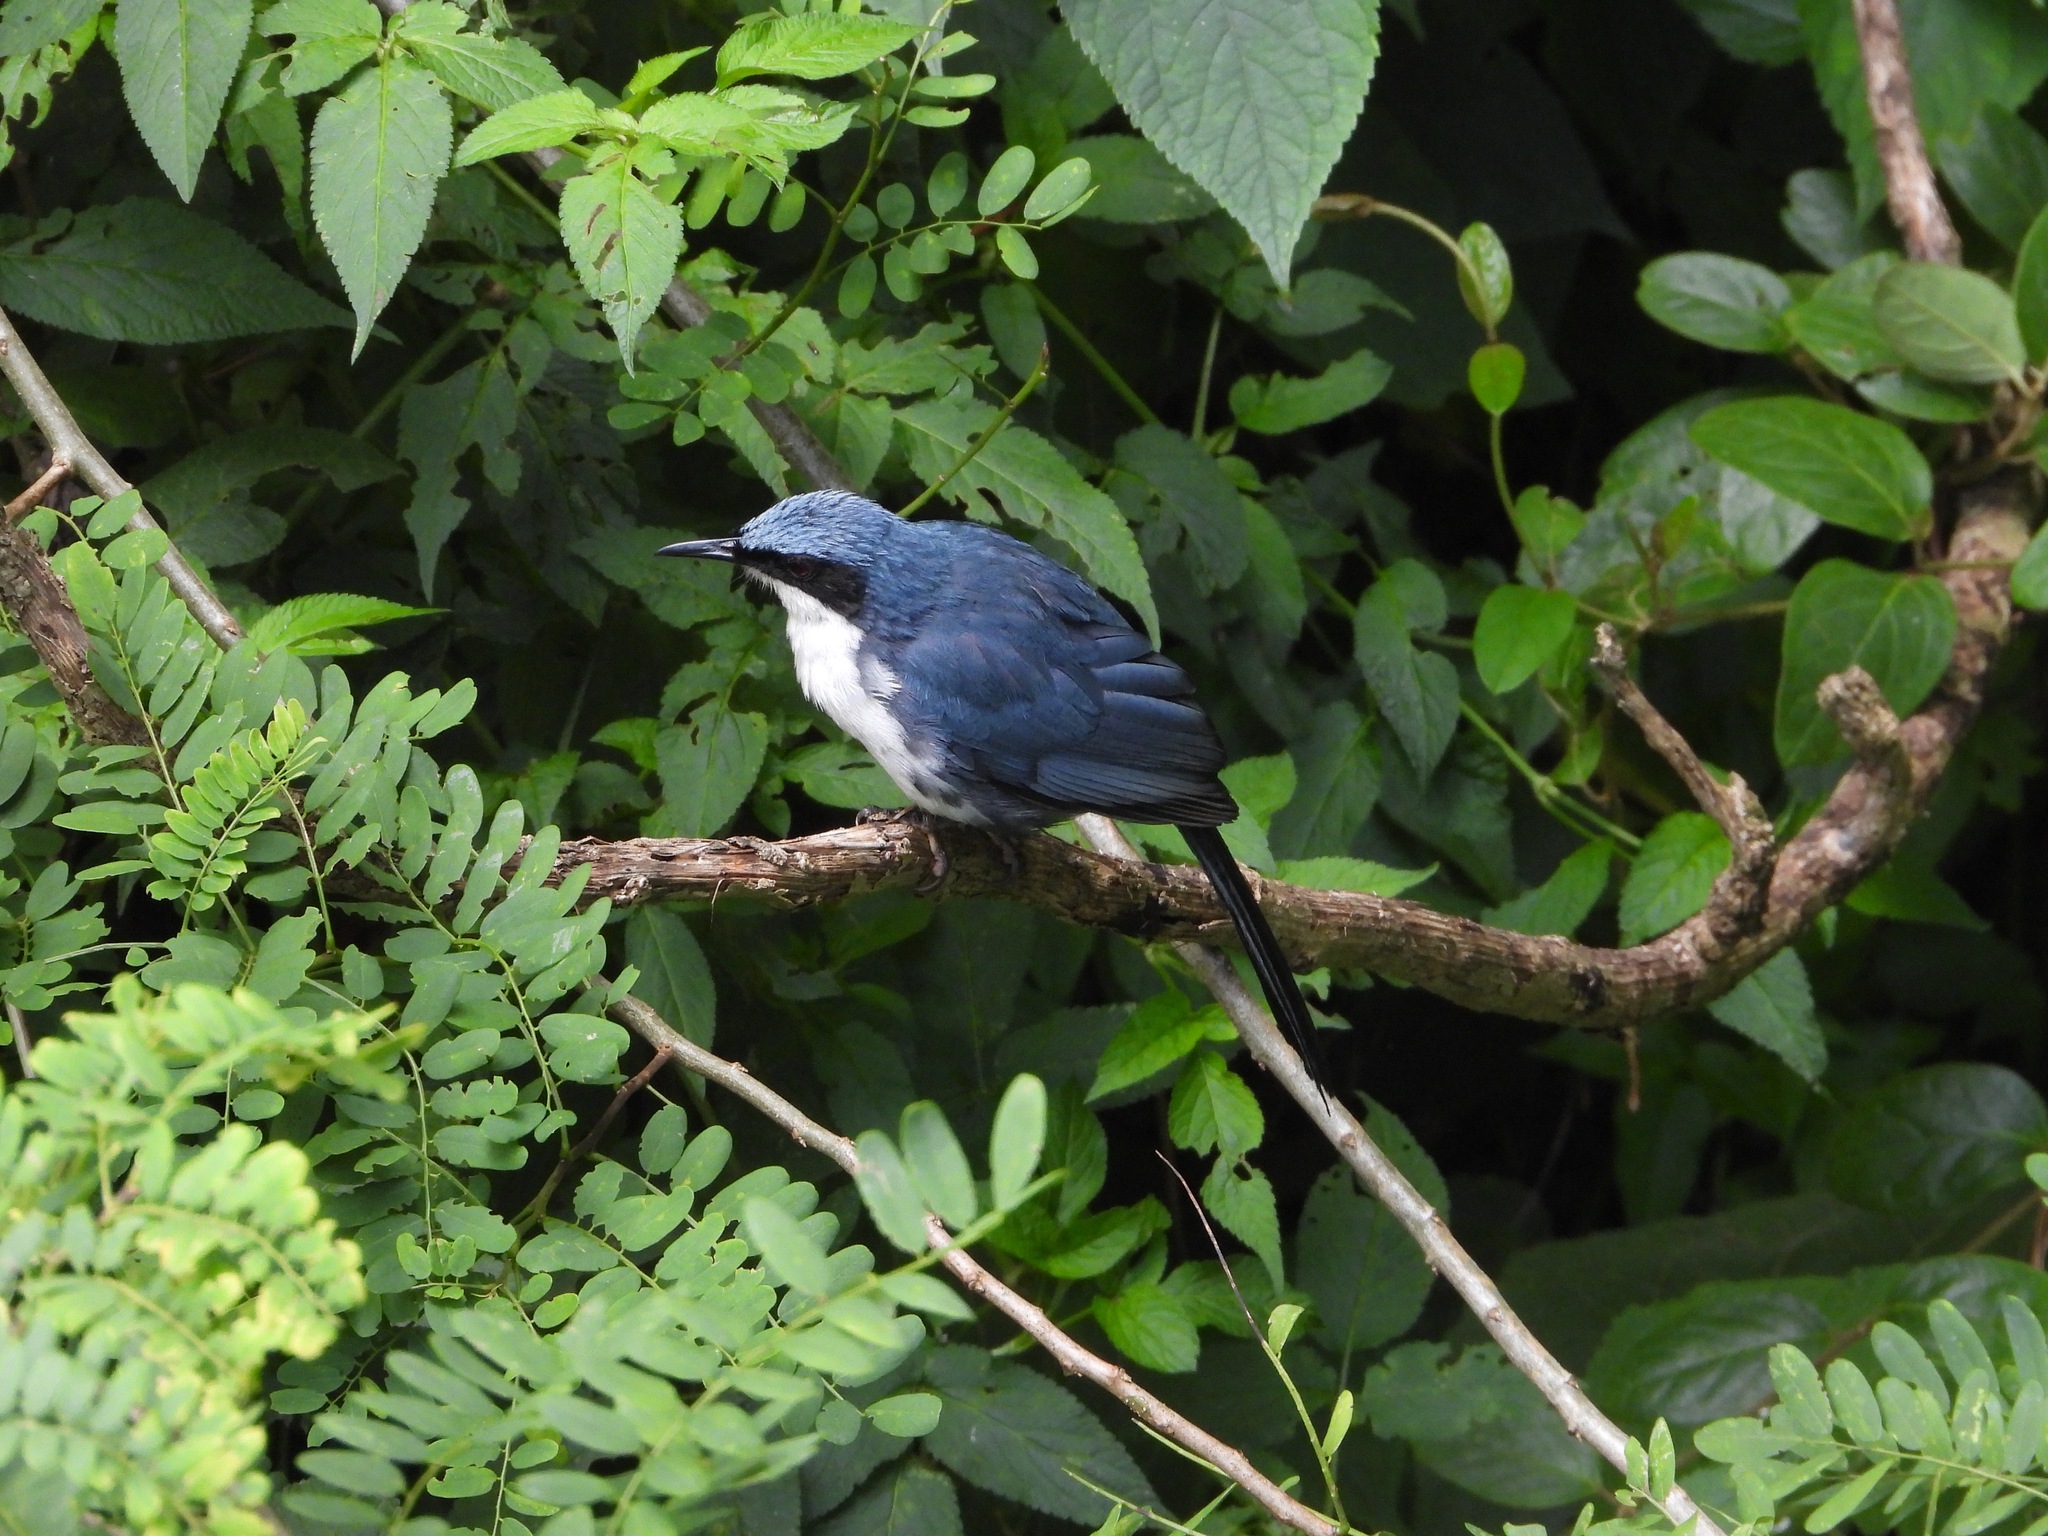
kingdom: Animalia
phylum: Chordata
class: Aves
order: Passeriformes
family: Mimidae
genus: Melanotis
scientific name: Melanotis hypoleucus
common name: Blue-and-white mockingbird
